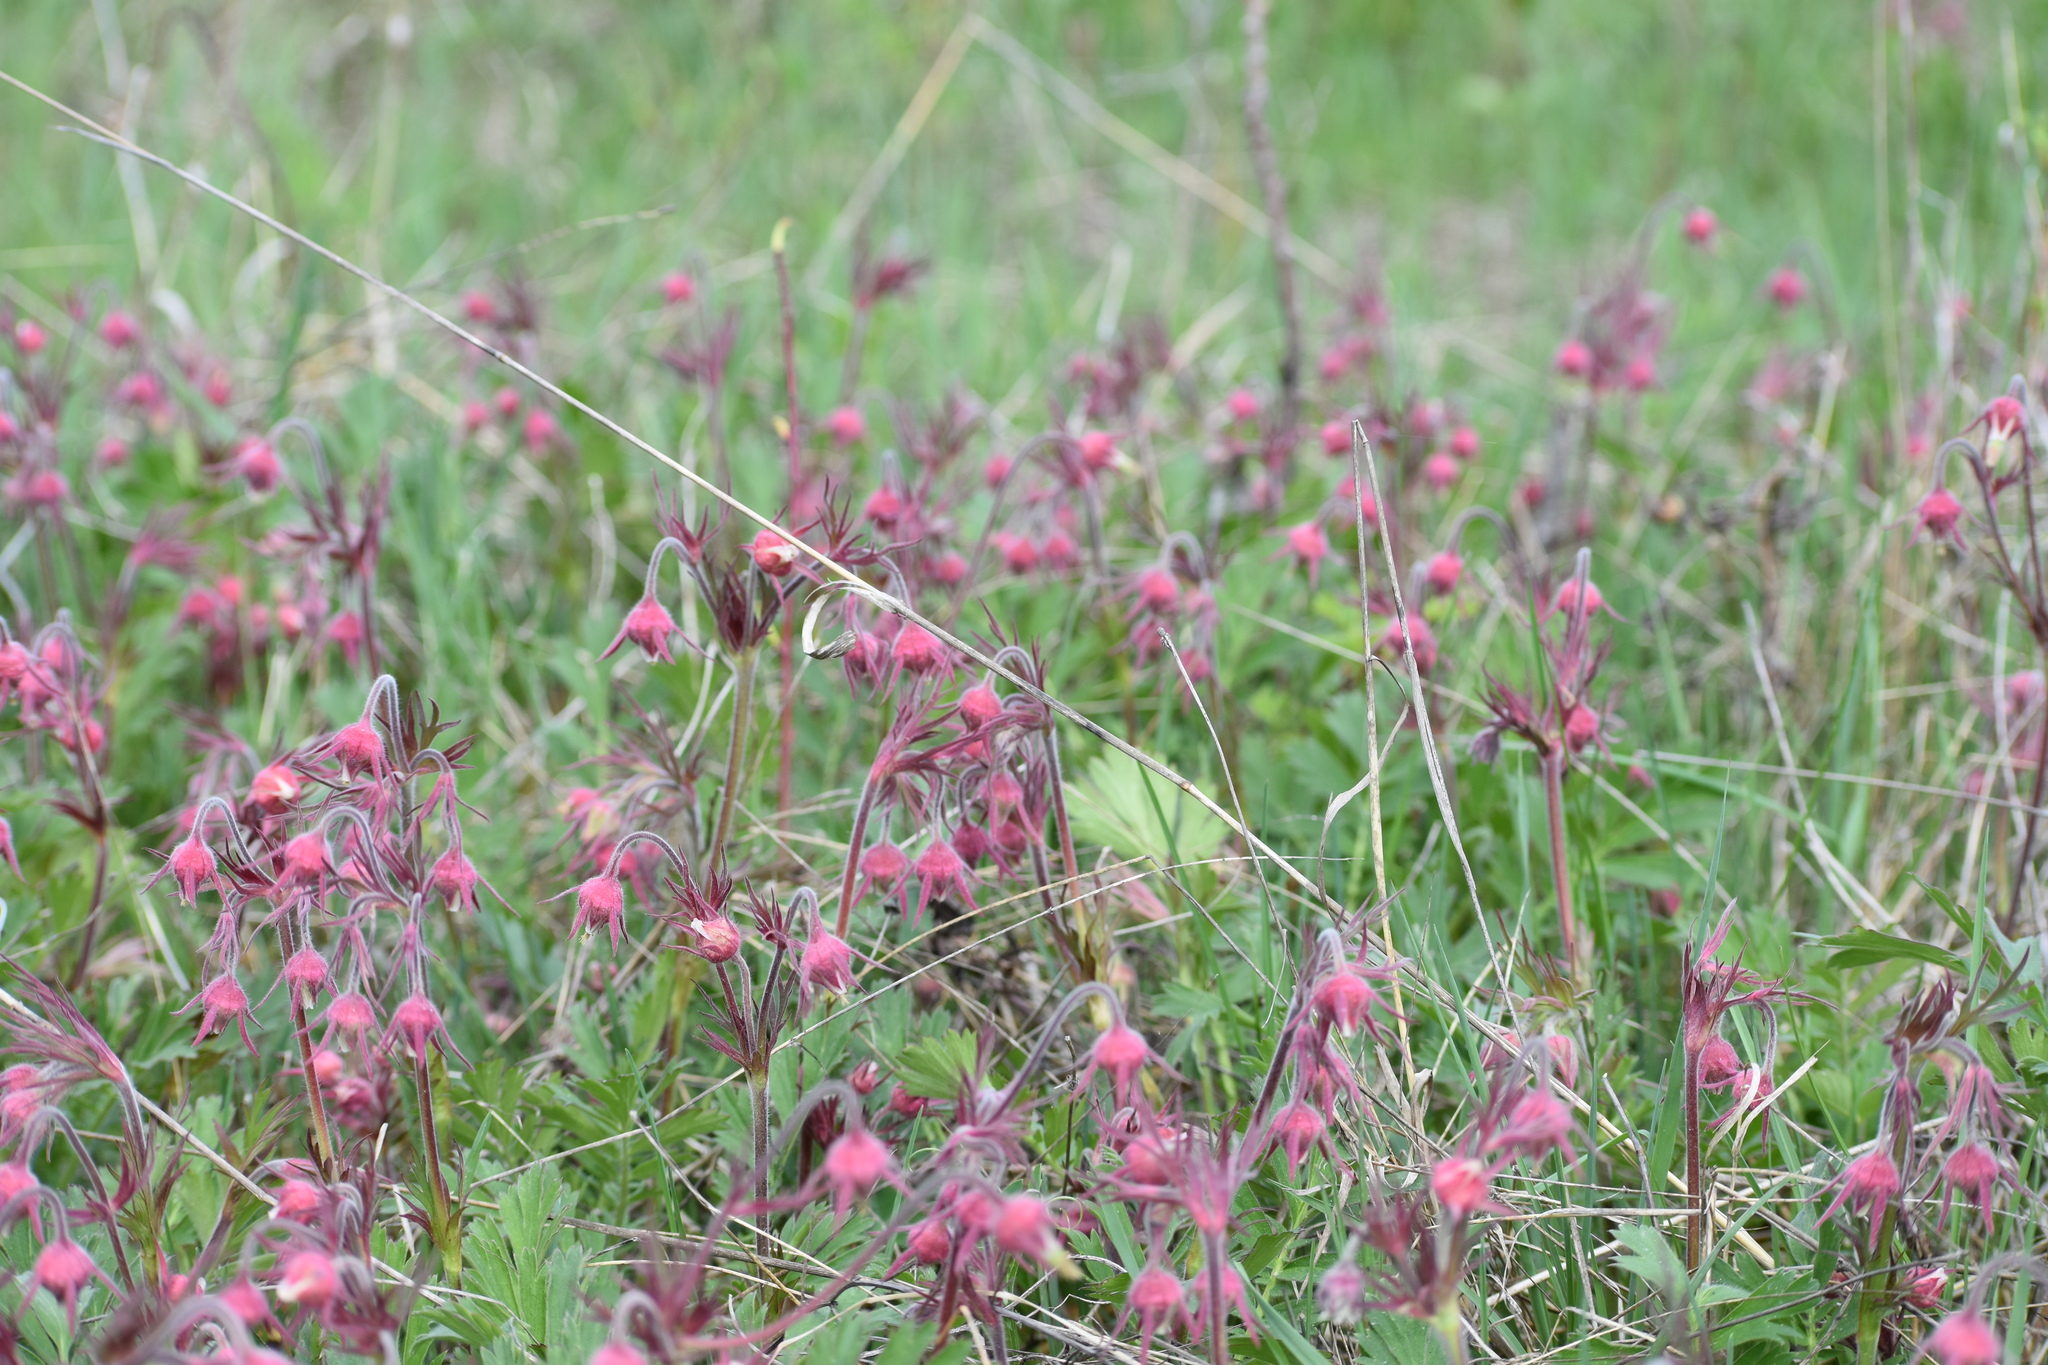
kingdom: Plantae
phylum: Tracheophyta
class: Magnoliopsida
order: Rosales
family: Rosaceae
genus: Geum
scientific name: Geum triflorum
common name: Old man's whiskers
